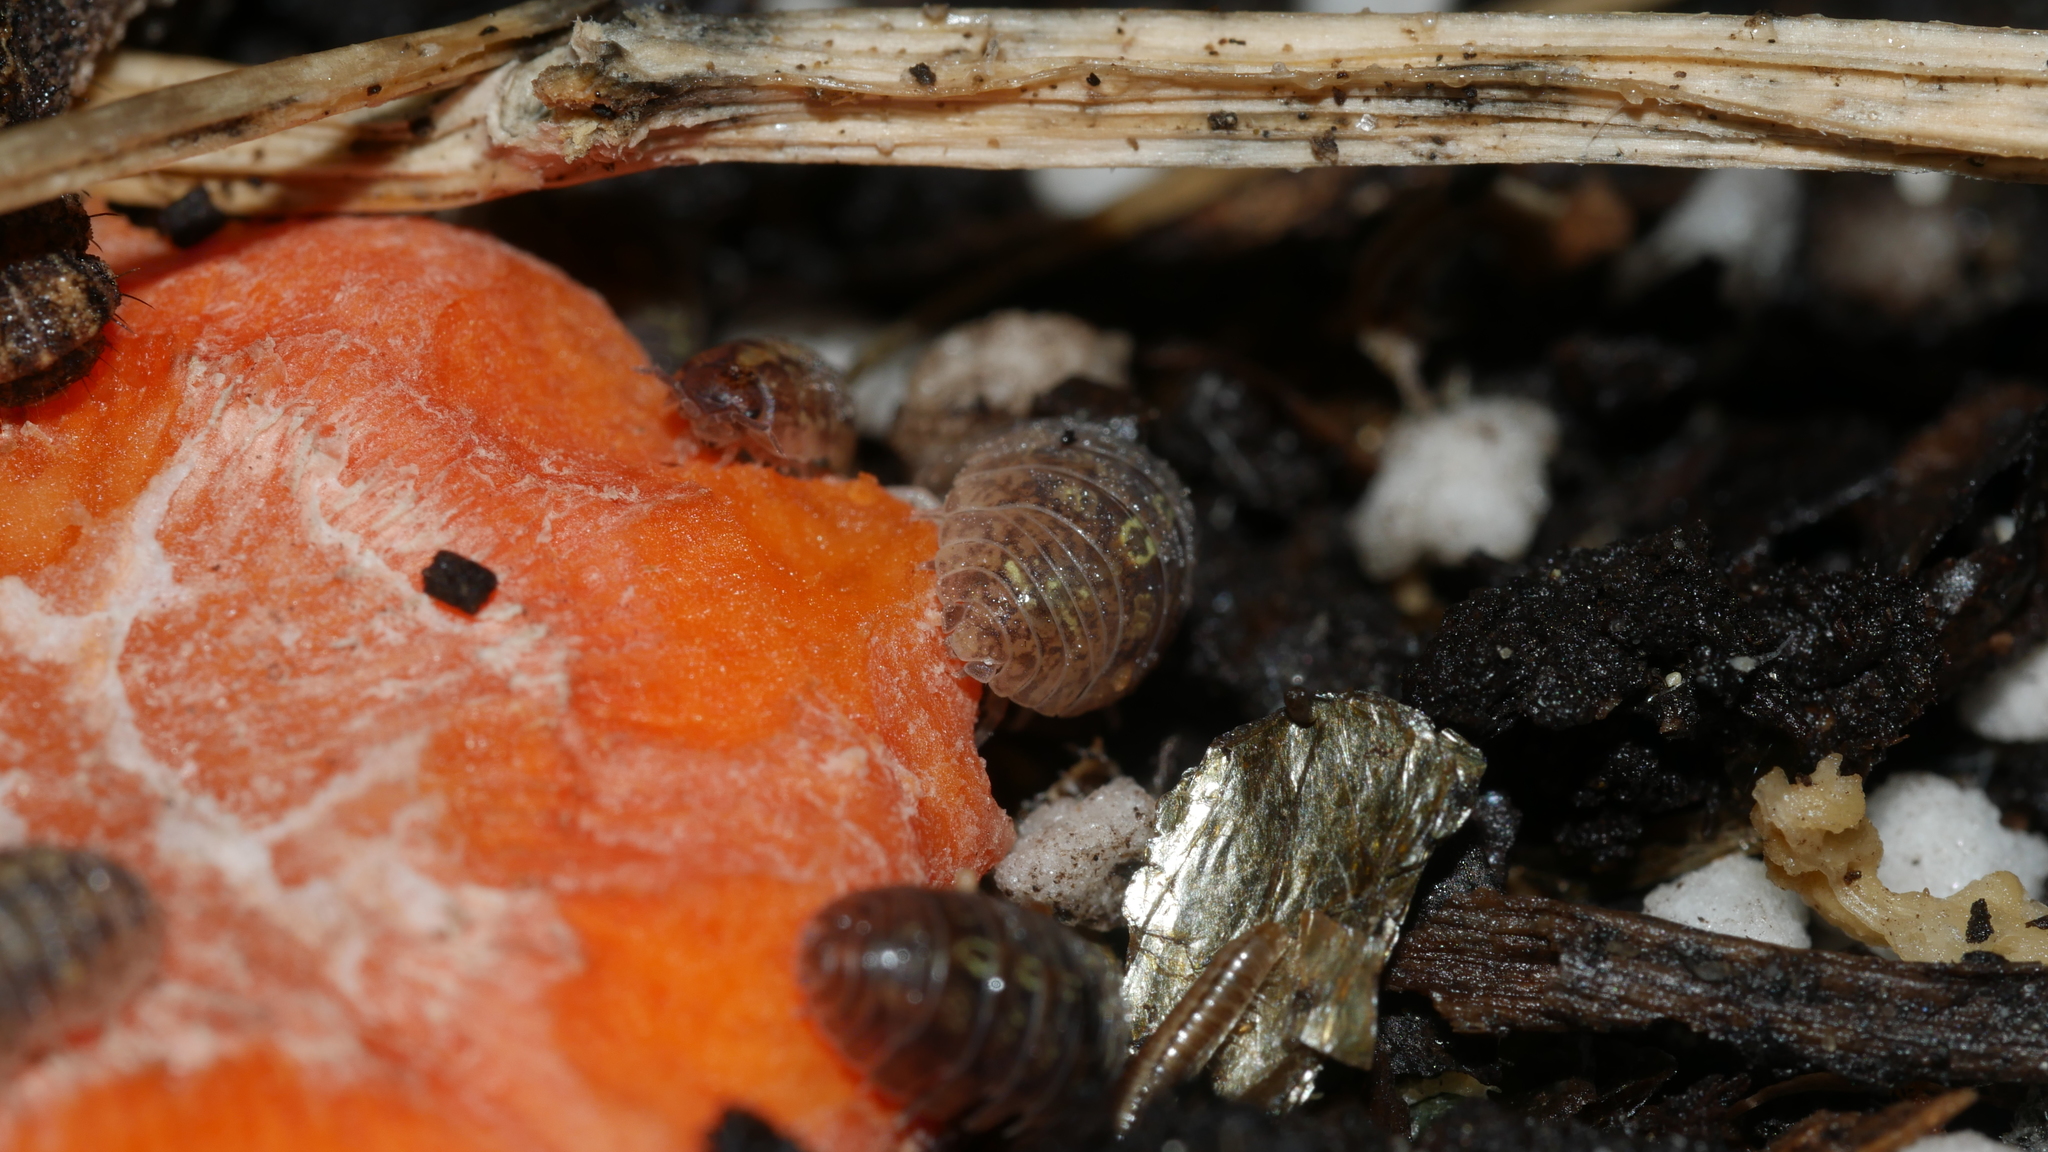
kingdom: Animalia
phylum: Arthropoda
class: Malacostraca
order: Isopoda
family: Armadillidiidae
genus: Armadillidium
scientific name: Armadillidium vulgare
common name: Common pill woodlouse
